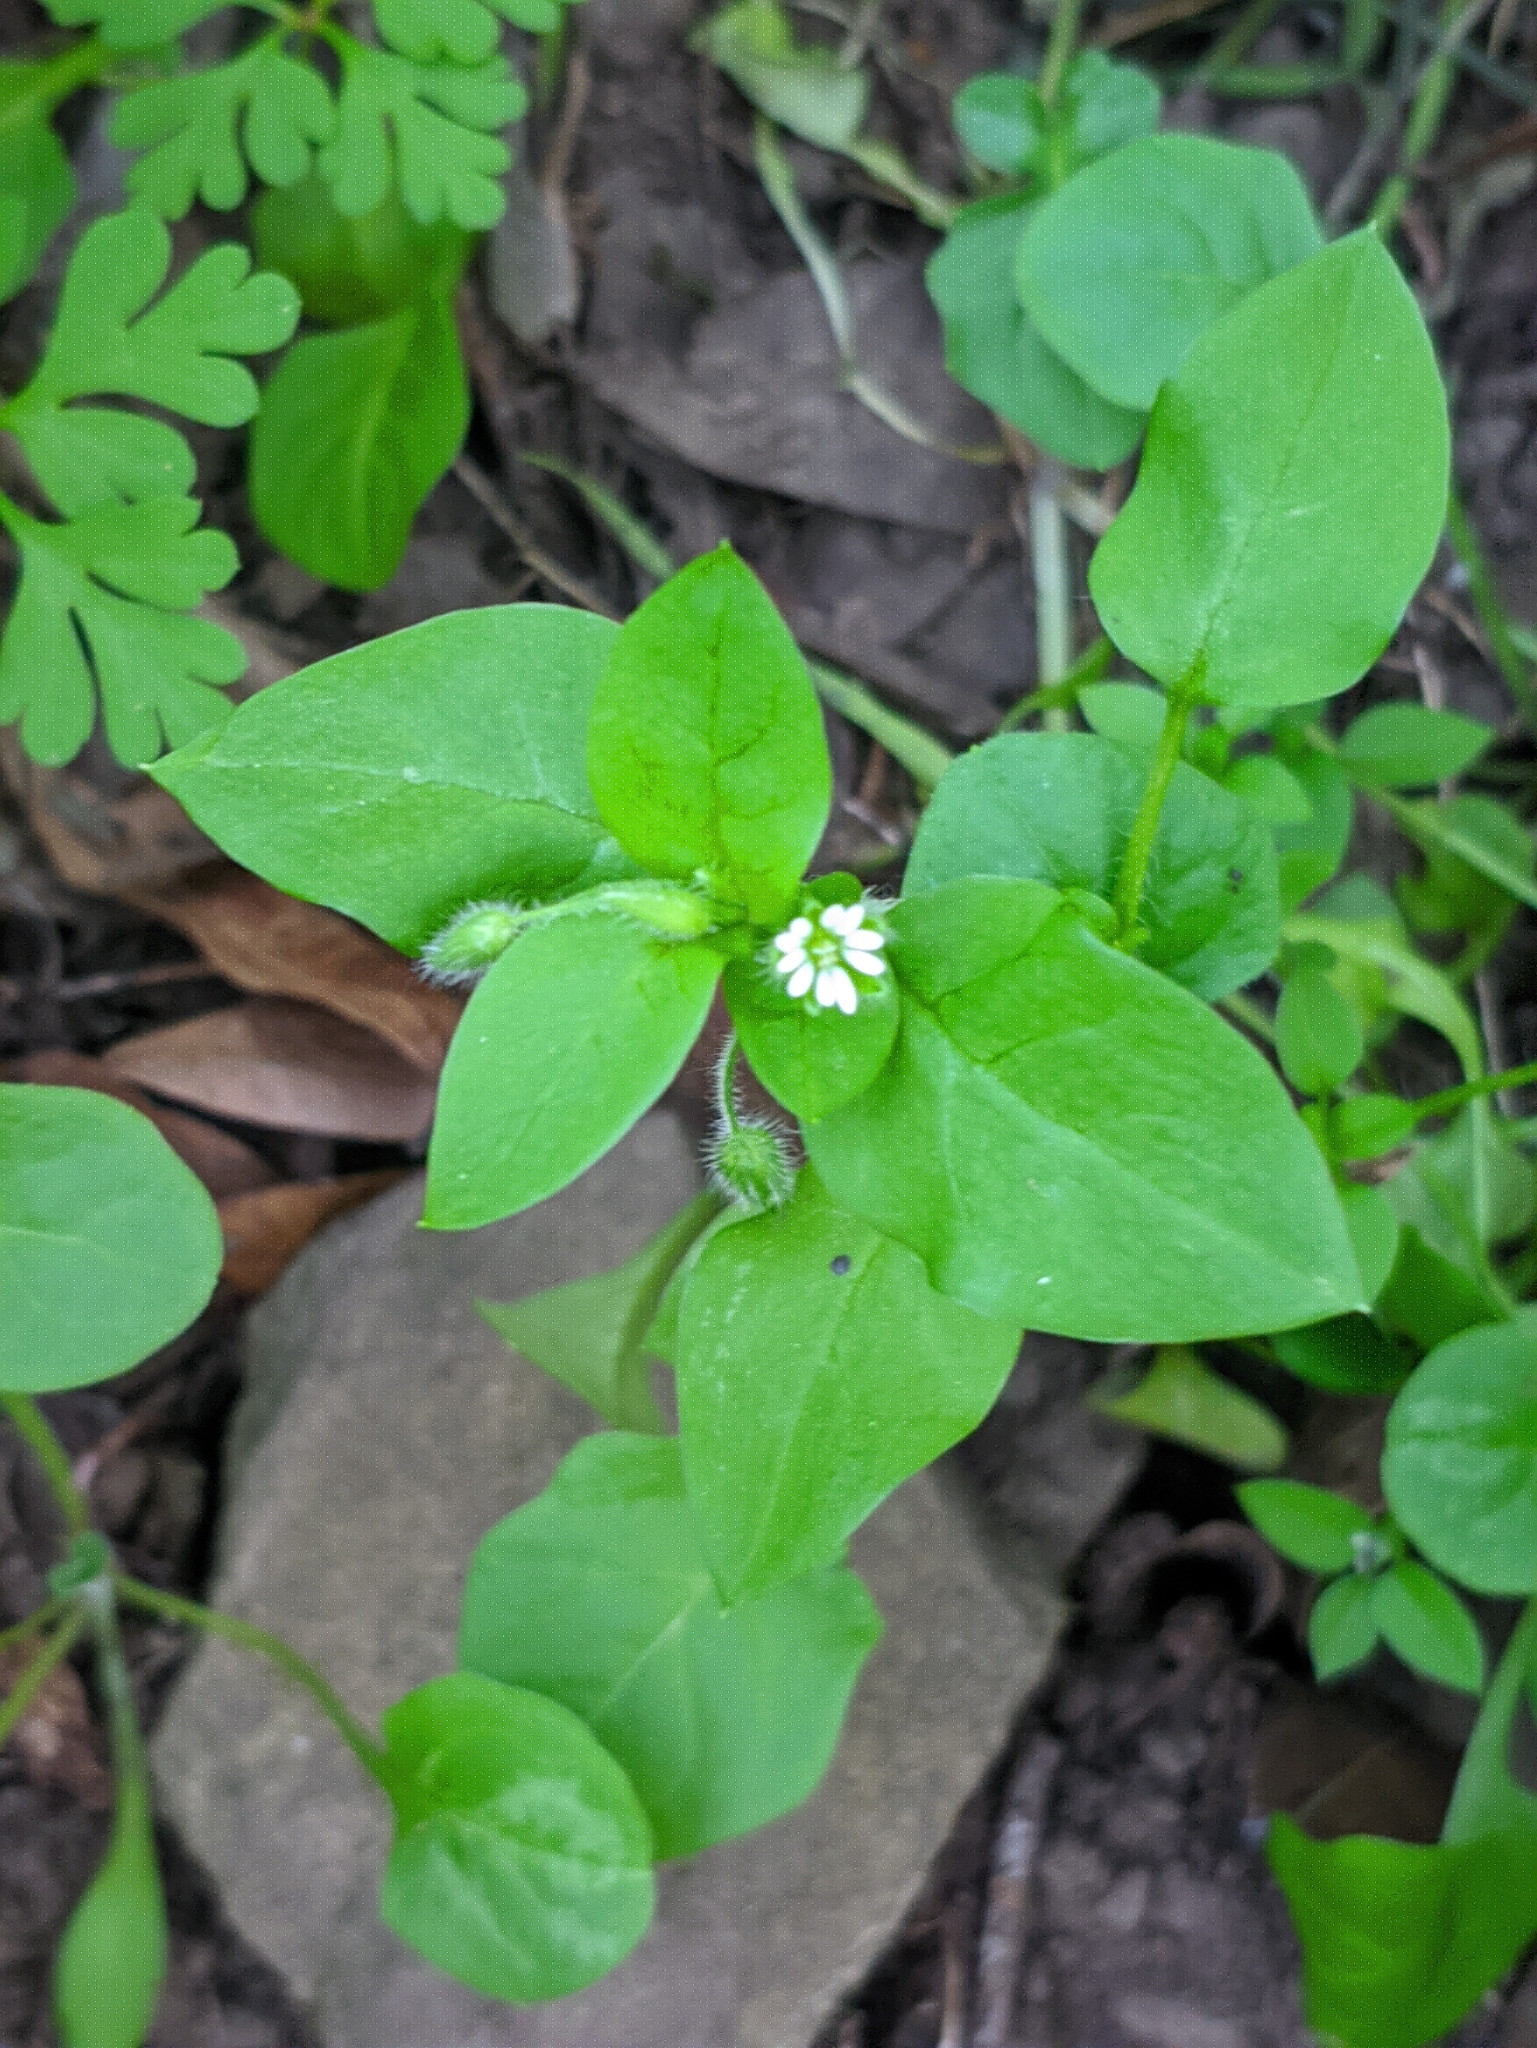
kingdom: Plantae
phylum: Tracheophyta
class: Magnoliopsida
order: Caryophyllales
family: Caryophyllaceae
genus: Stellaria
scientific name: Stellaria media
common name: Common chickweed
